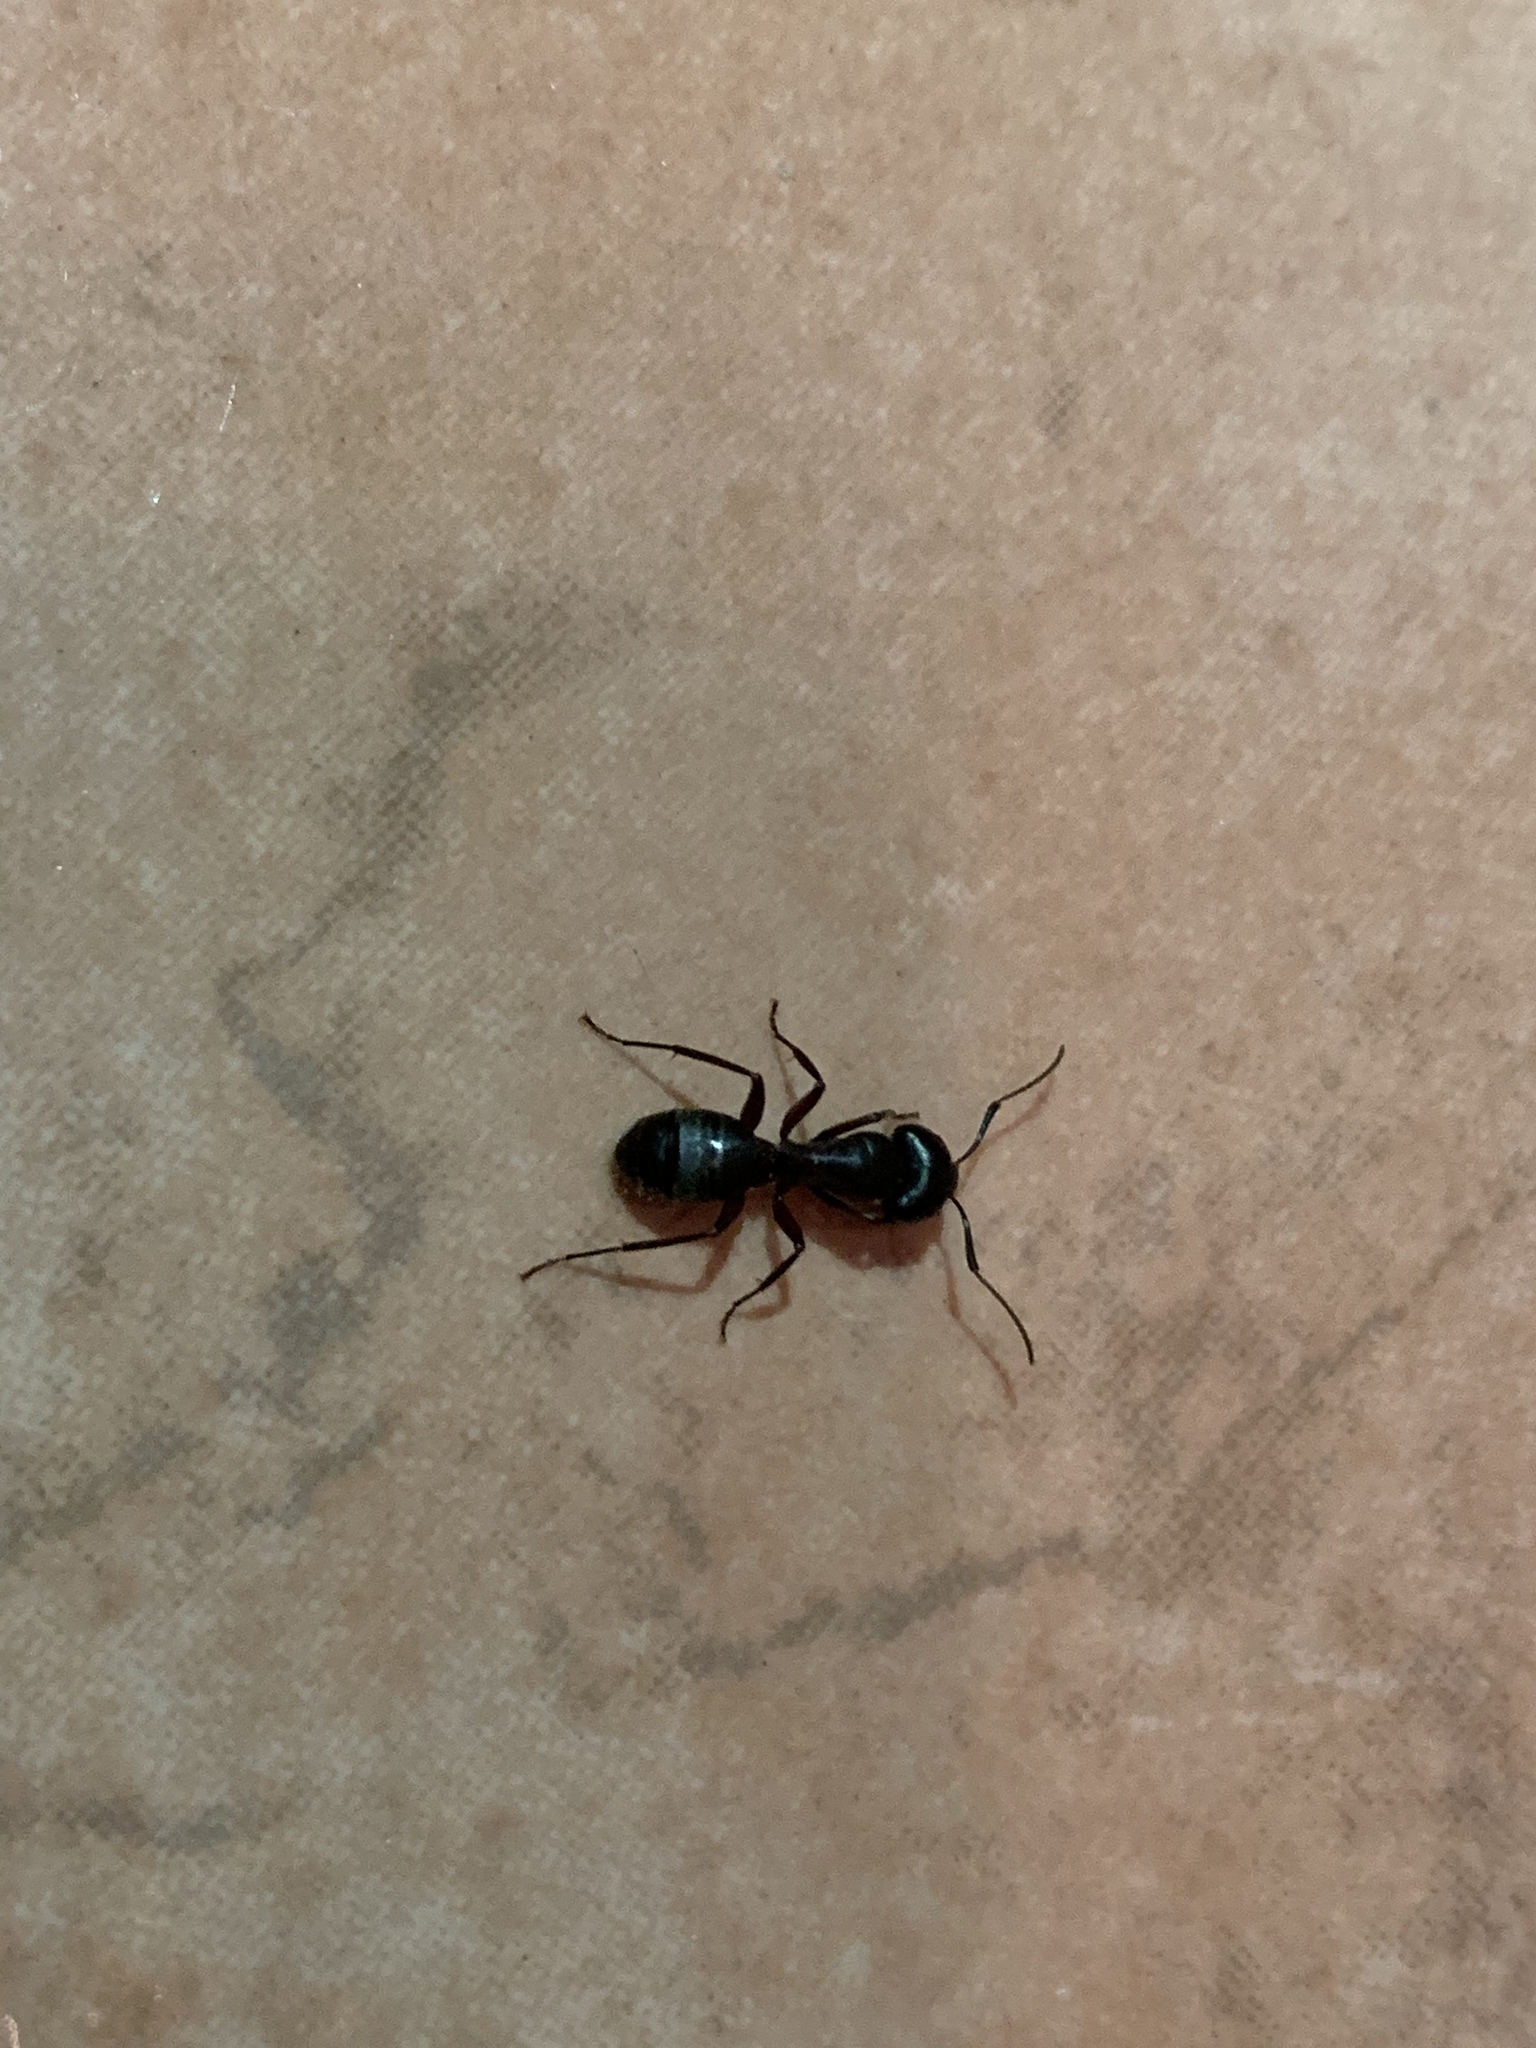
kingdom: Animalia
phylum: Arthropoda
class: Insecta
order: Hymenoptera
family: Formicidae
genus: Camponotus
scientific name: Camponotus ligniperdus
